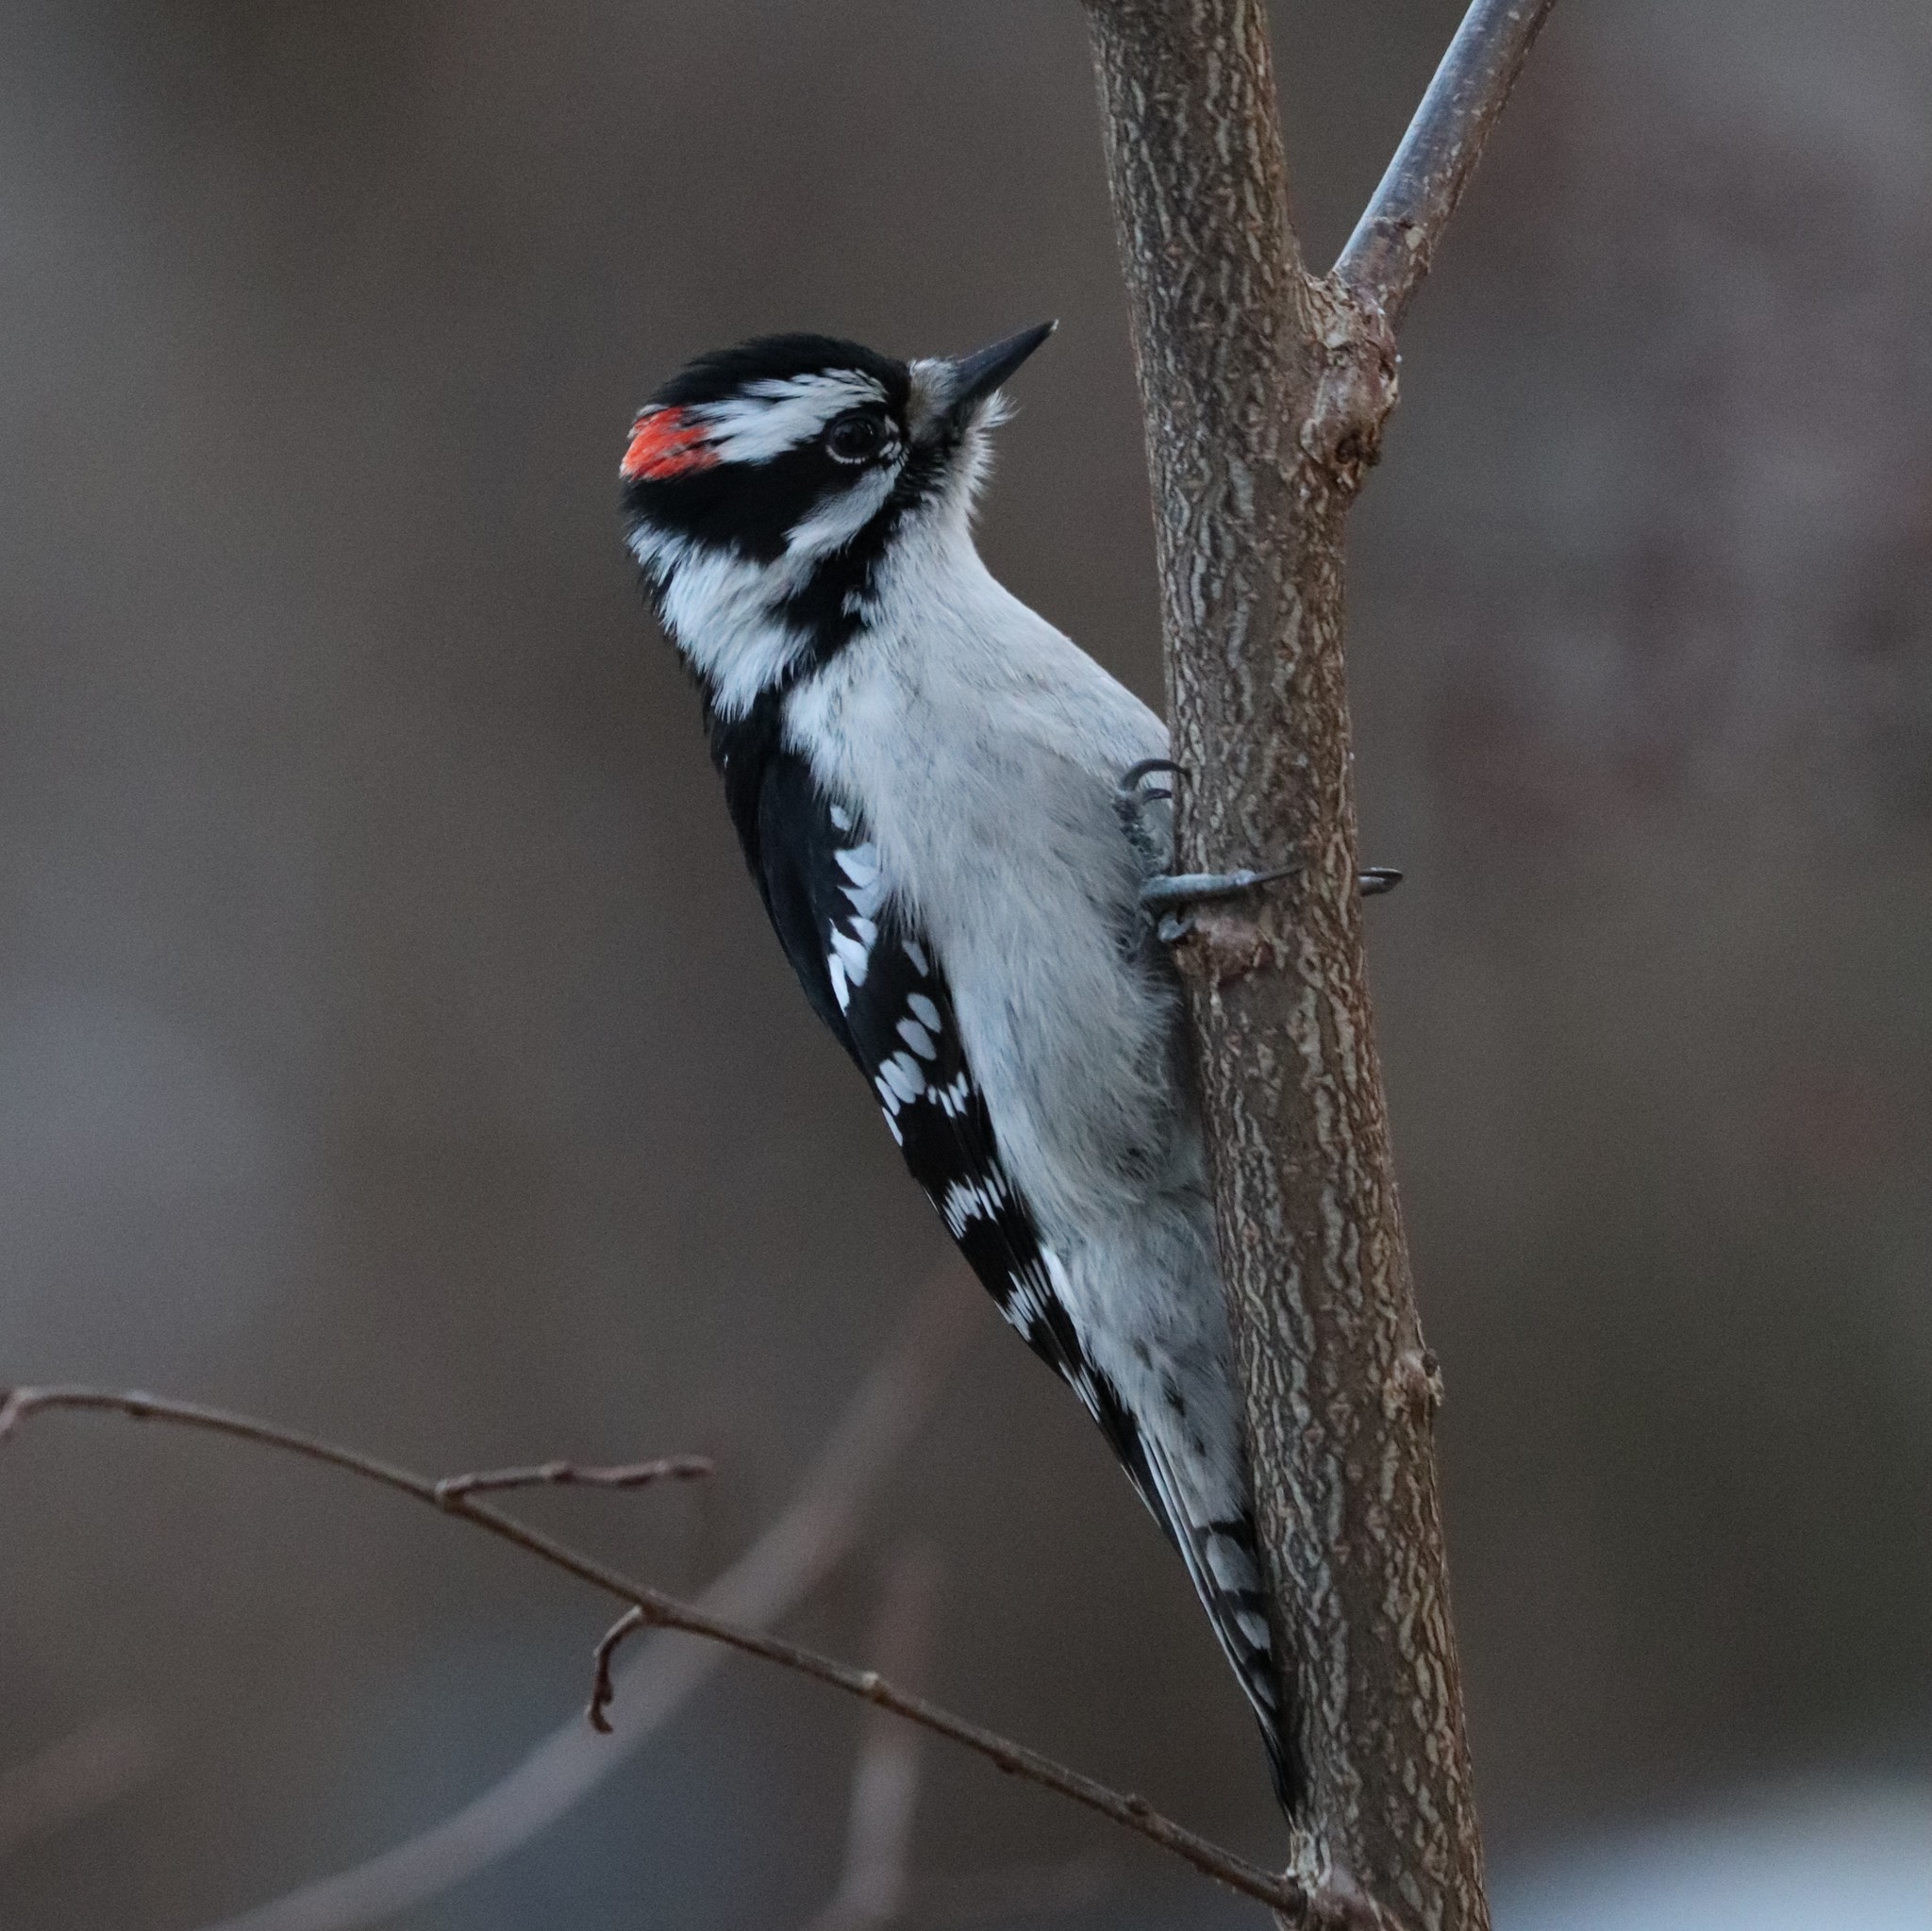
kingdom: Animalia
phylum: Chordata
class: Aves
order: Piciformes
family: Picidae
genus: Dryobates
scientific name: Dryobates pubescens
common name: Downy woodpecker
